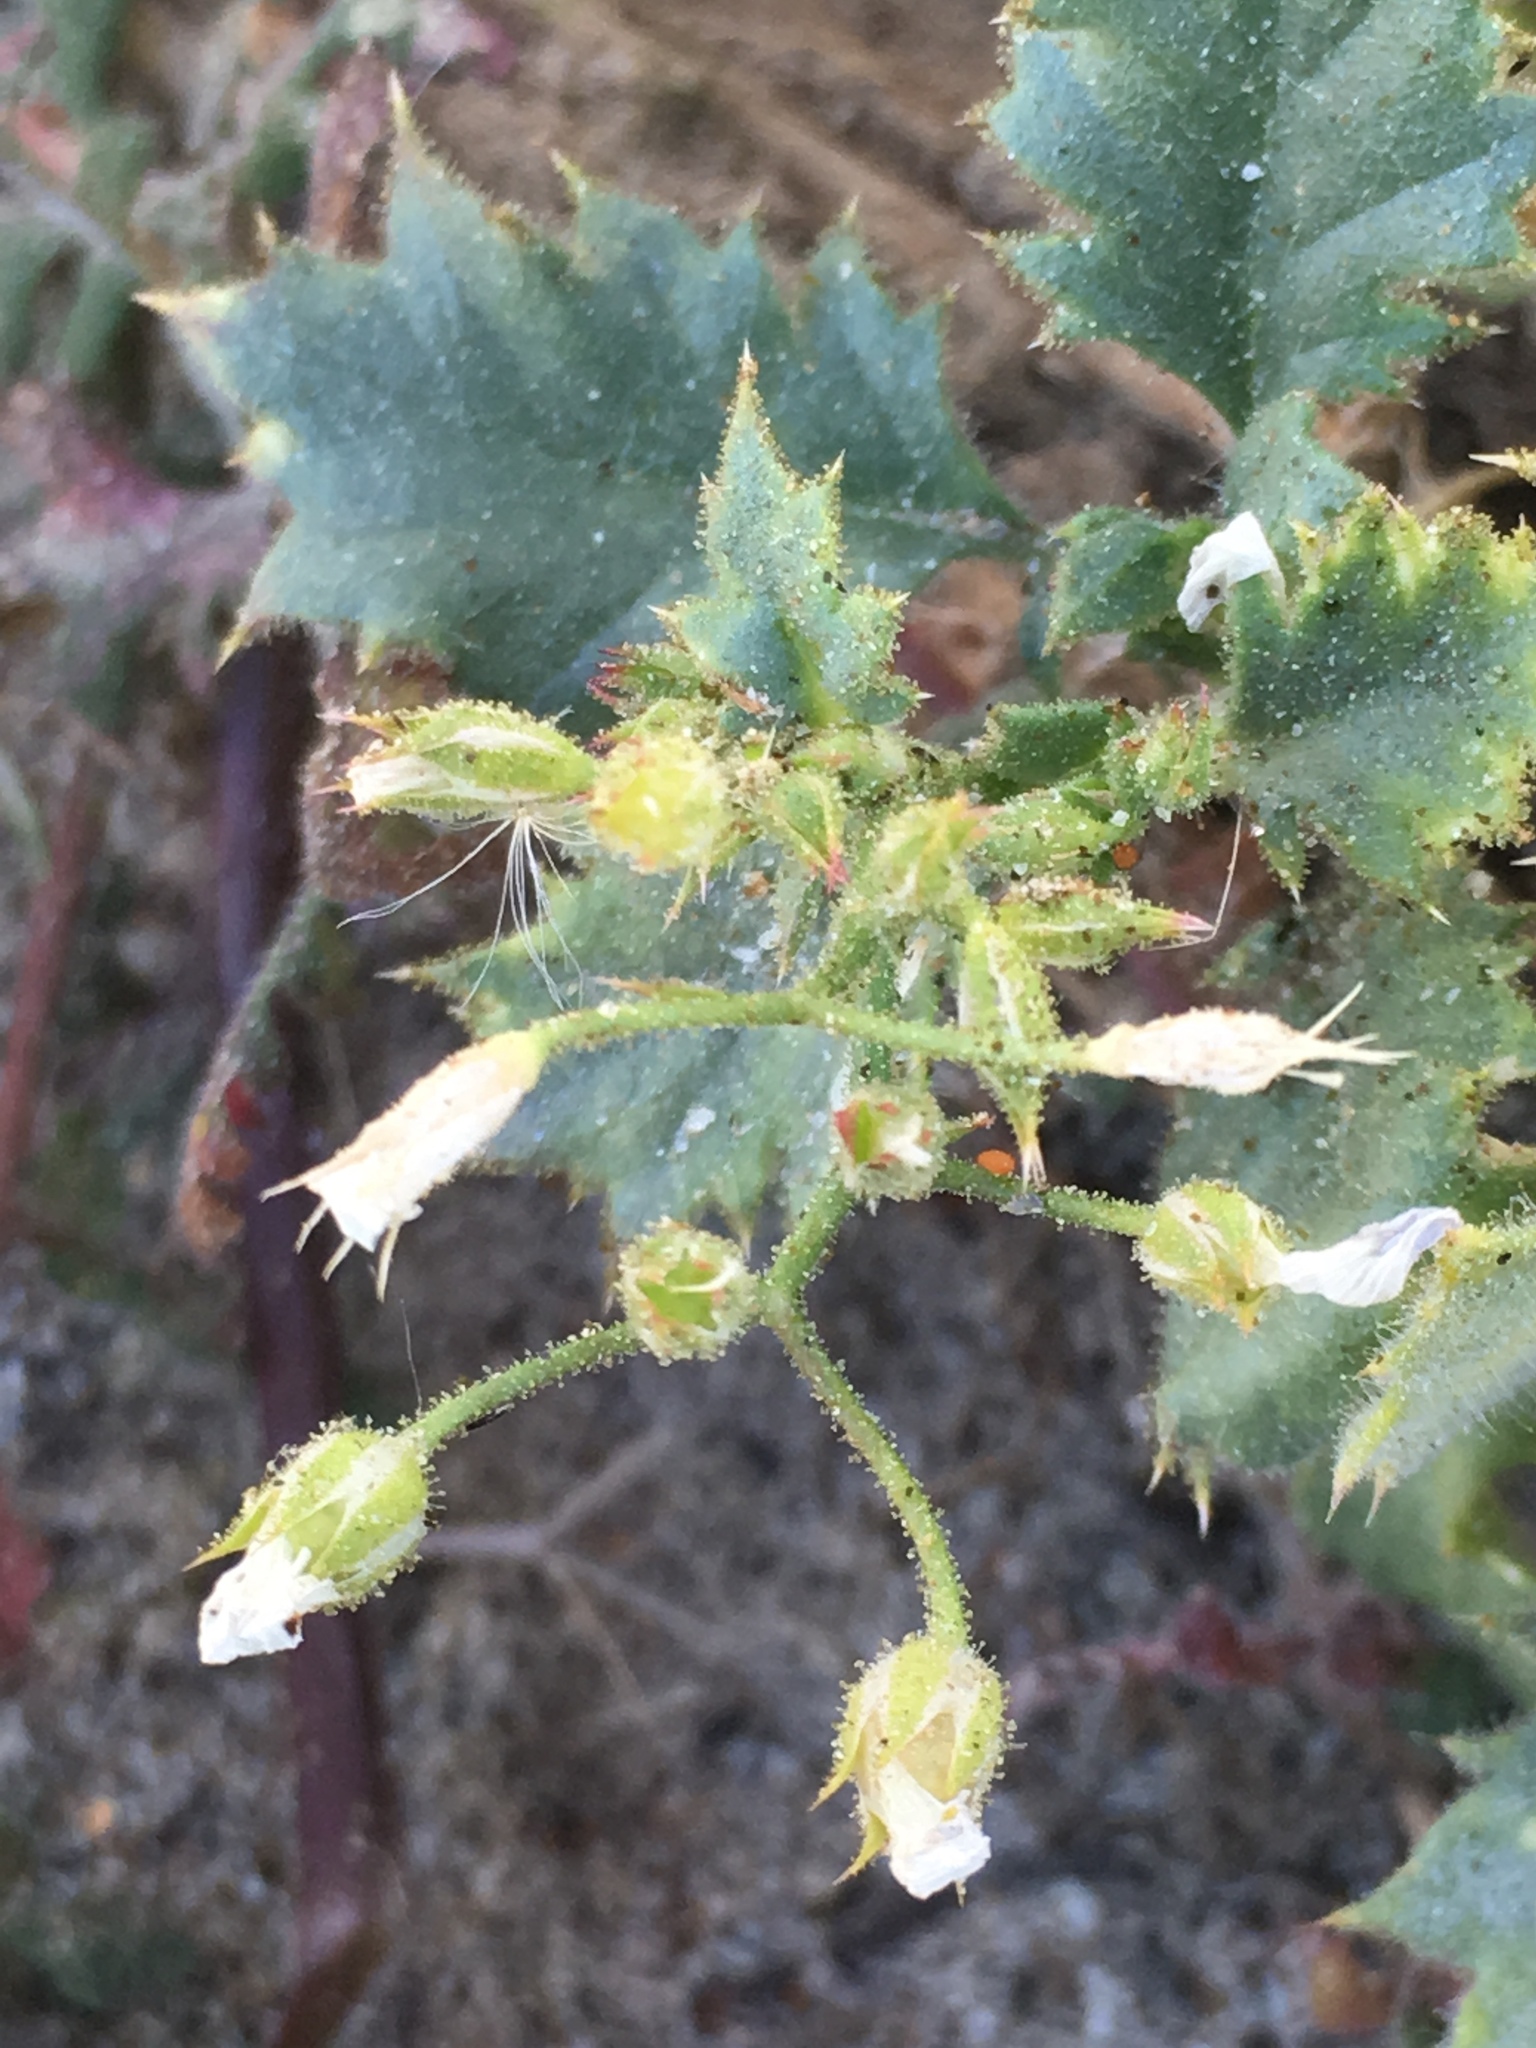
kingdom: Plantae
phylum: Tracheophyta
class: Magnoliopsida
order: Ericales
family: Polemoniaceae
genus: Aliciella
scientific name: Aliciella latifolia
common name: Broad-leaf gilia
